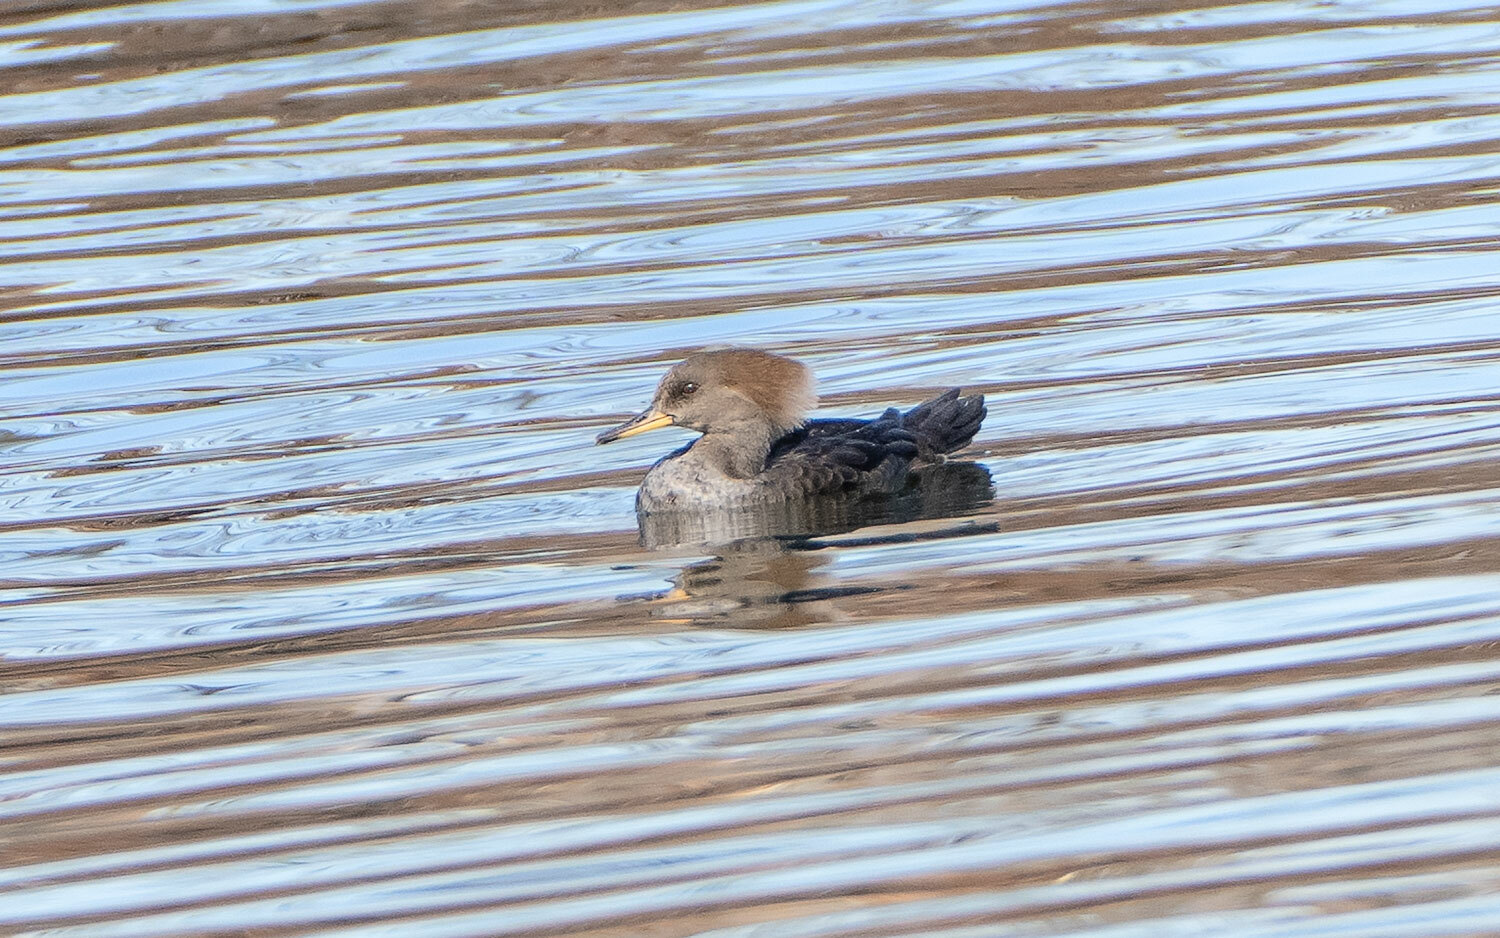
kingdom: Animalia
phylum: Chordata
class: Aves
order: Anseriformes
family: Anatidae
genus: Lophodytes
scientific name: Lophodytes cucullatus
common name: Hooded merganser
